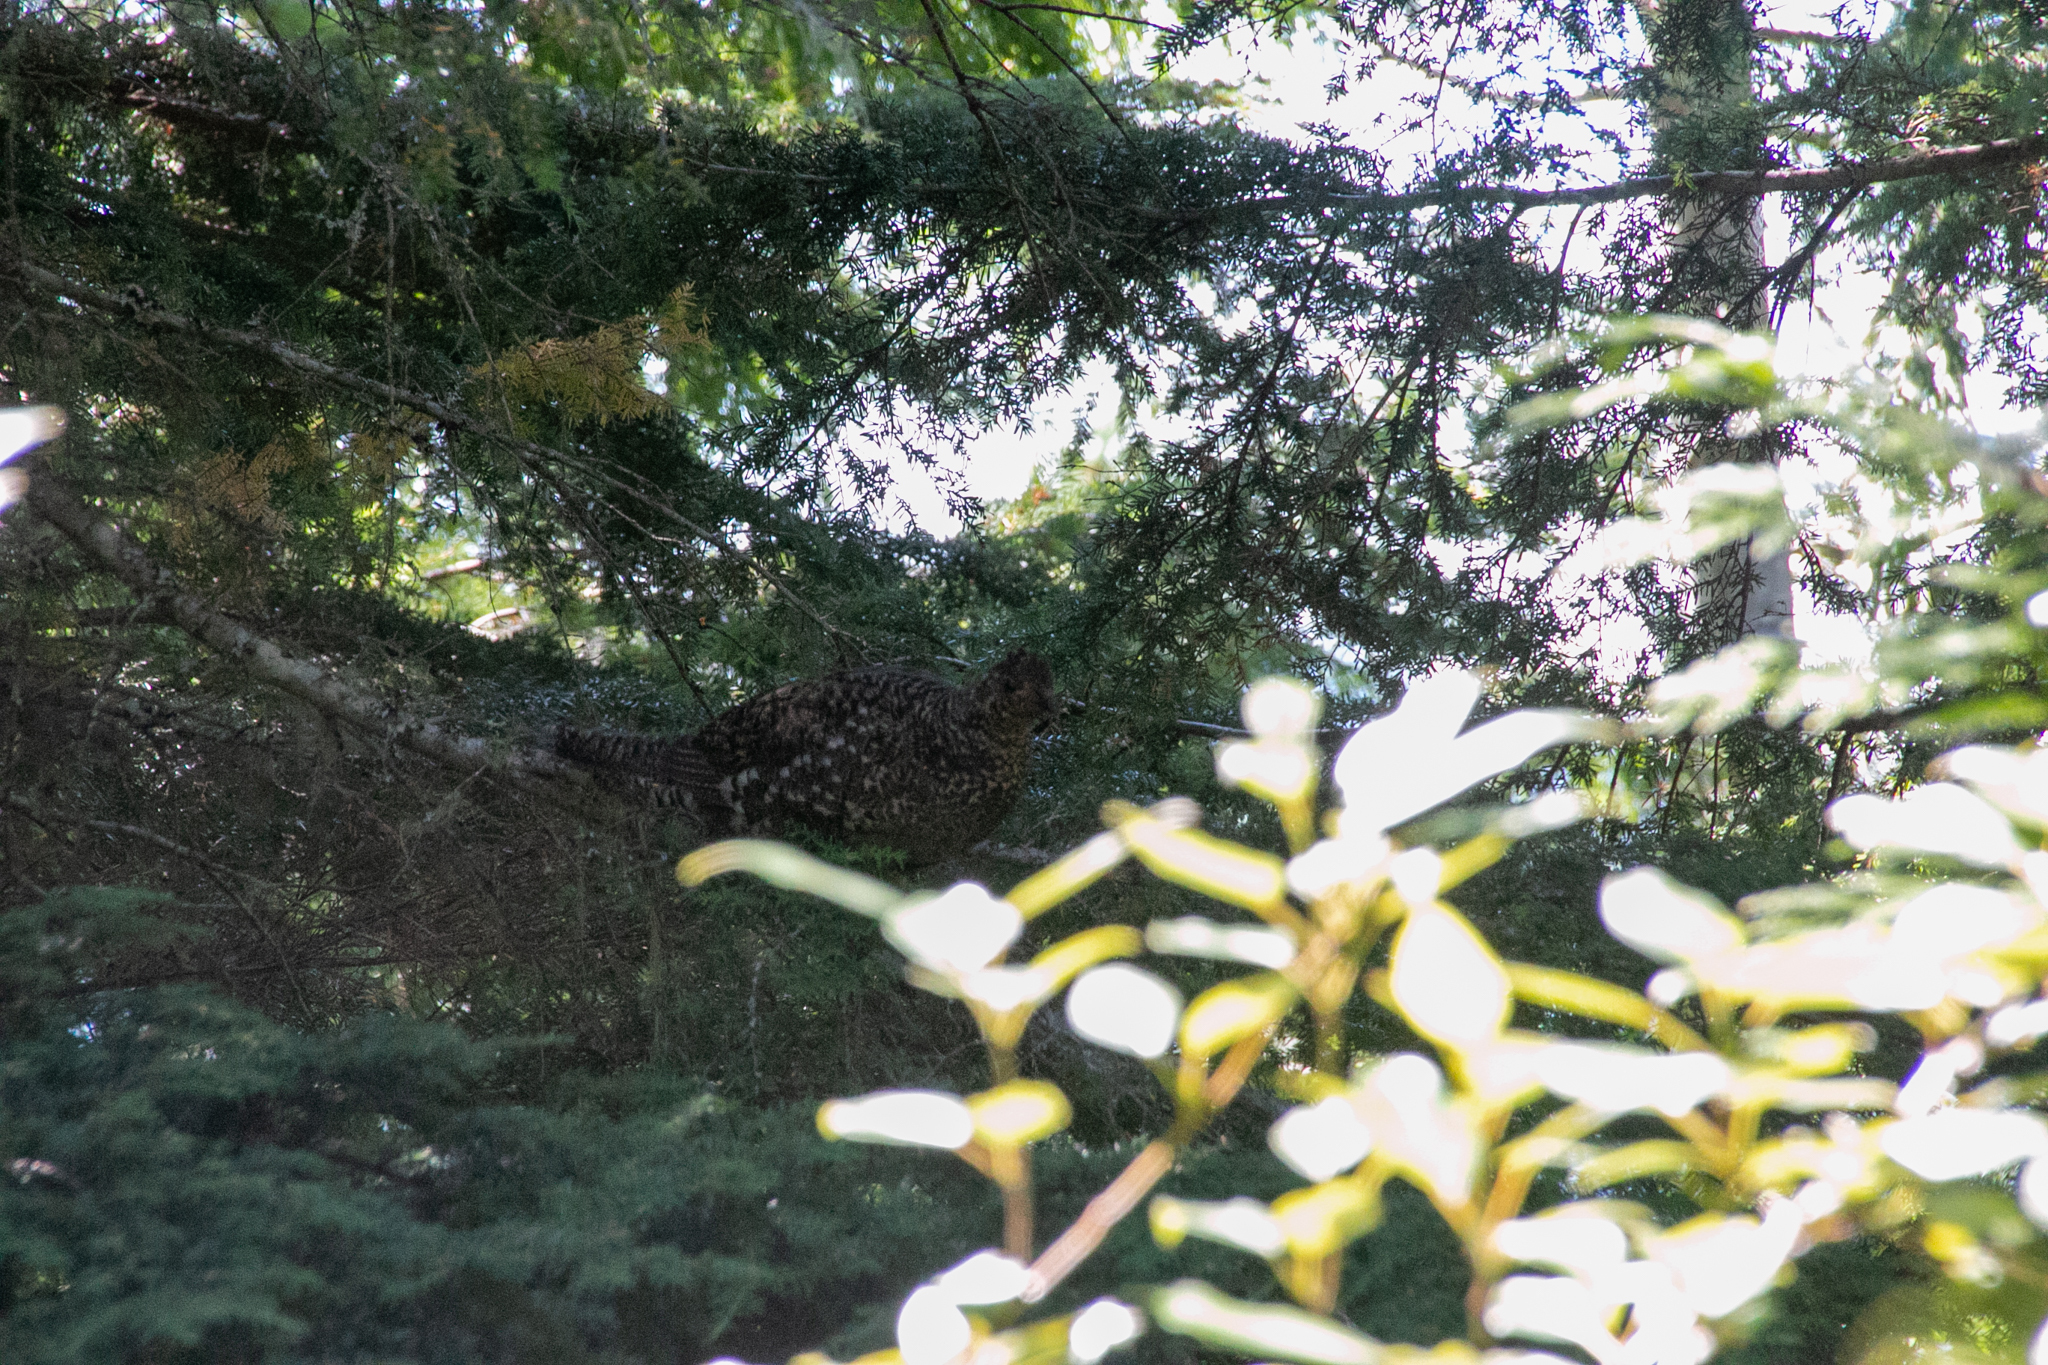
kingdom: Animalia
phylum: Chordata
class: Aves
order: Galliformes
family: Phasianidae
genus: Dendragapus
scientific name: Dendragapus fuliginosus
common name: Sooty grouse
